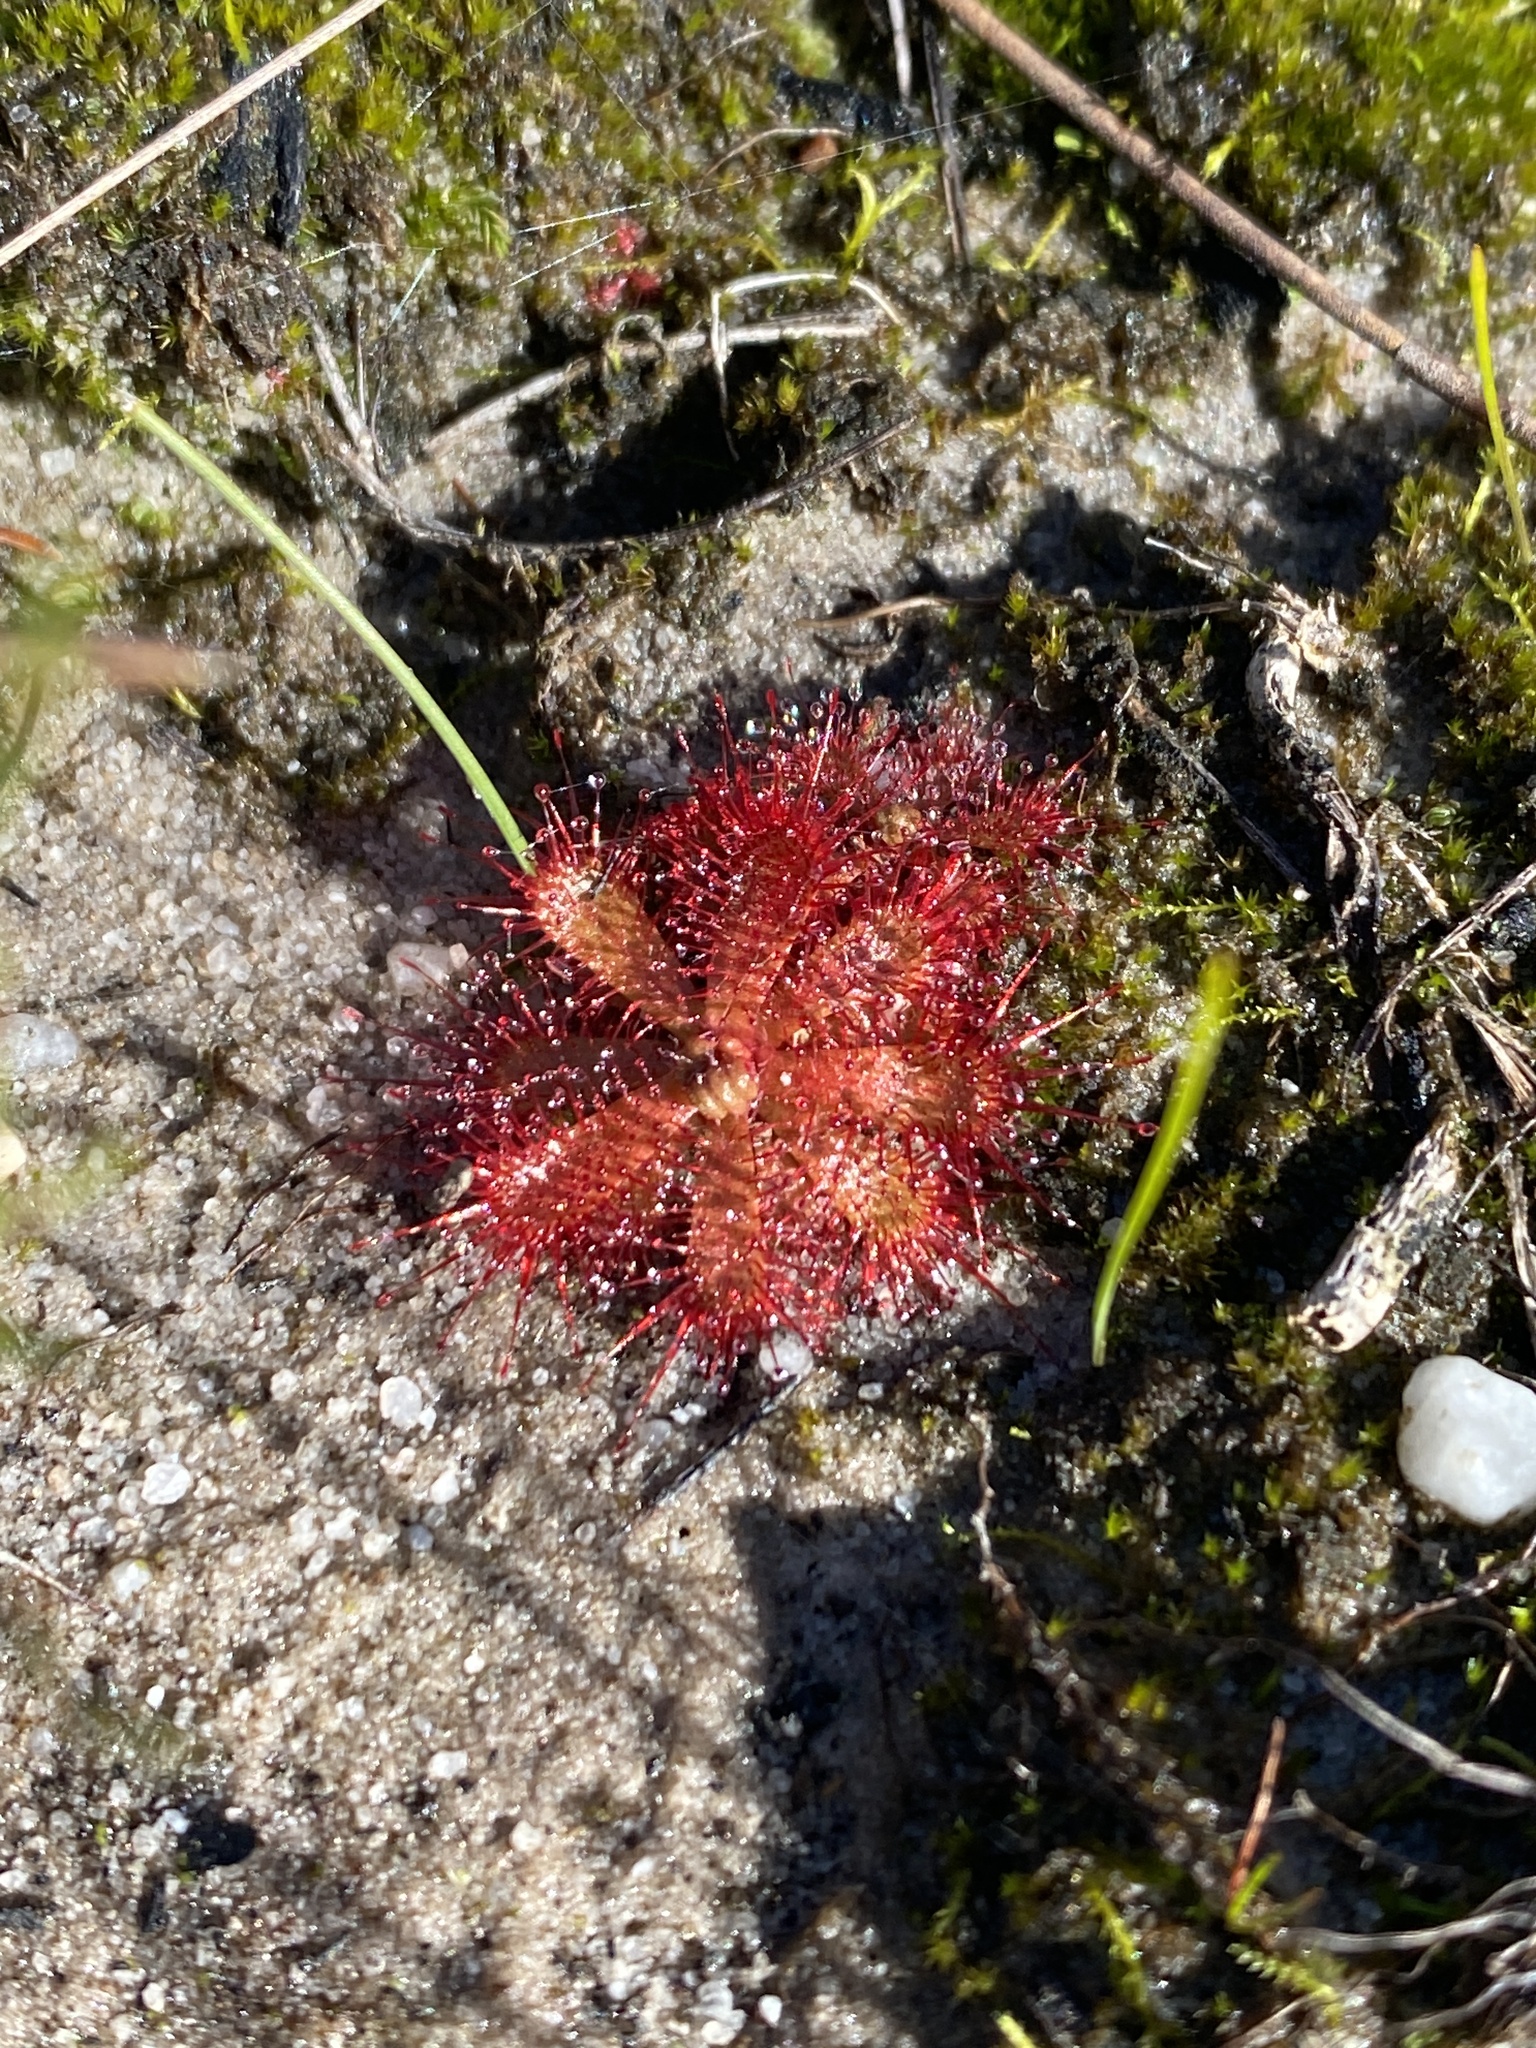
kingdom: Plantae
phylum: Tracheophyta
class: Magnoliopsida
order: Caryophyllales
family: Droseraceae
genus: Drosera
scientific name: Drosera trinervia
